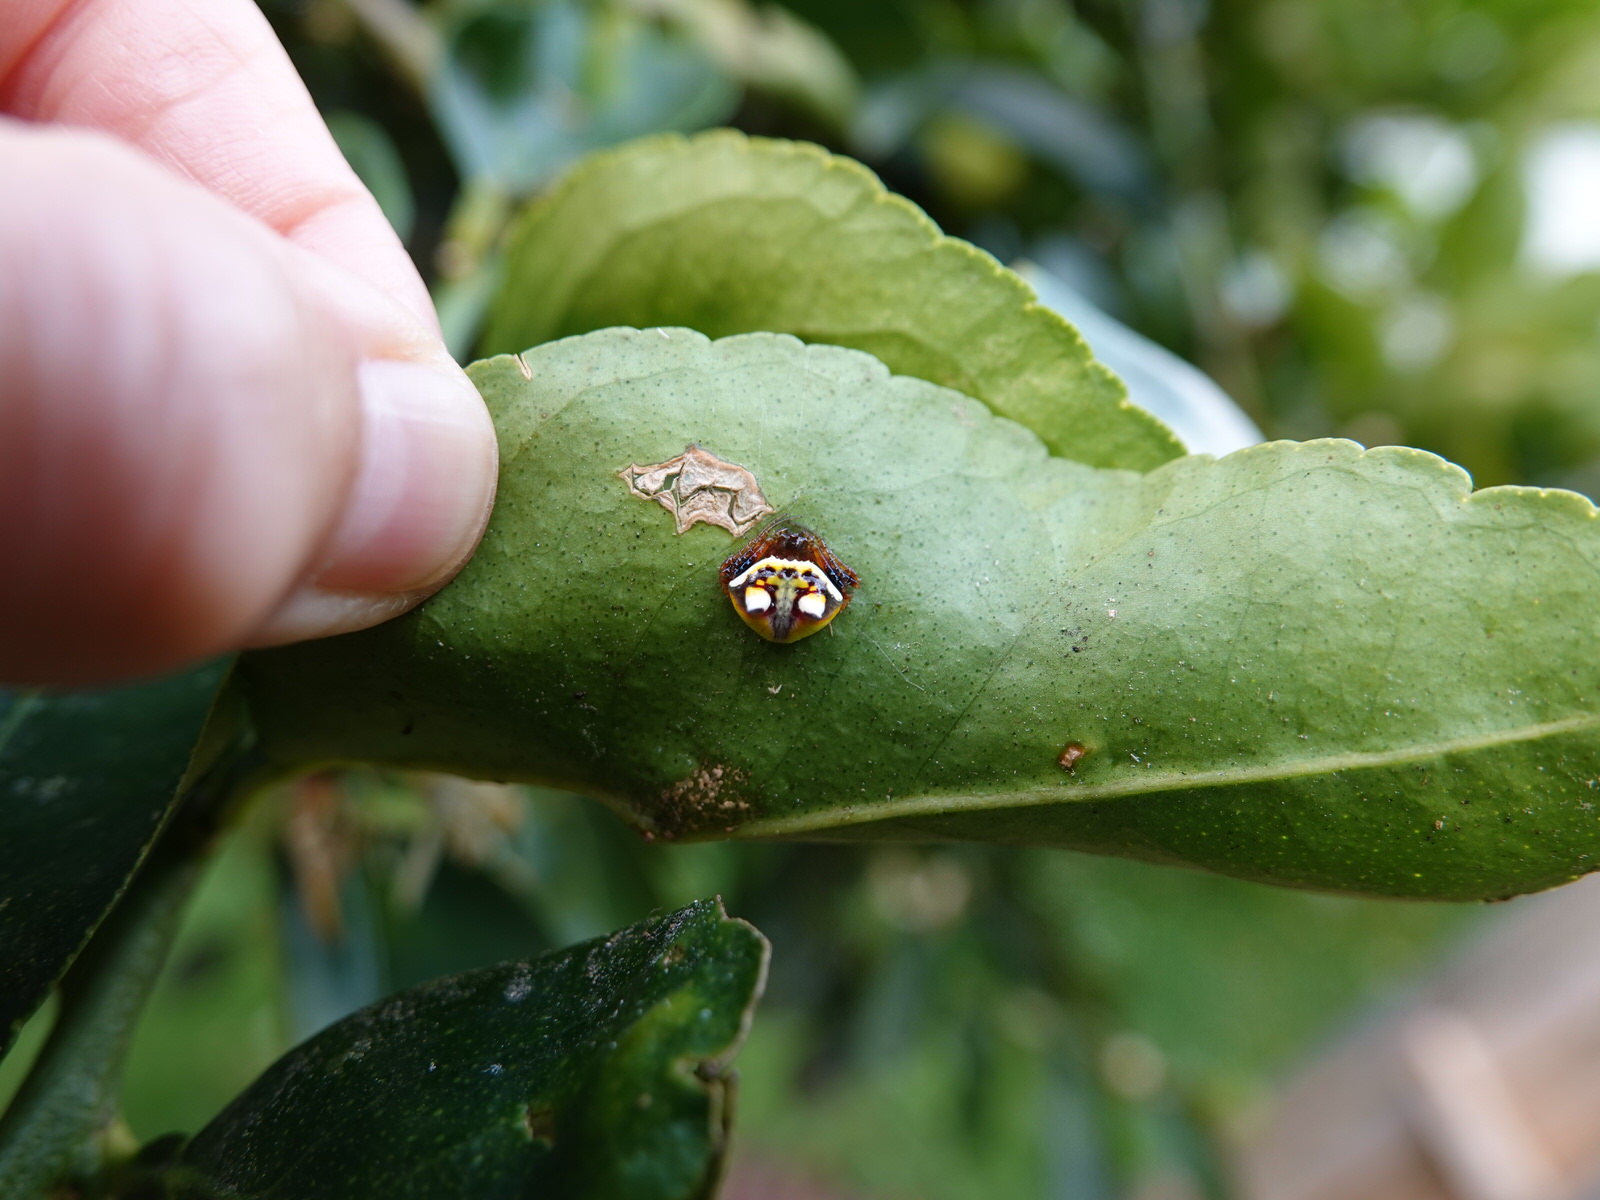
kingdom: Animalia
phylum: Arthropoda
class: Arachnida
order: Araneae
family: Araneidae
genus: Poecilopachys
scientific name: Poecilopachys australasia
